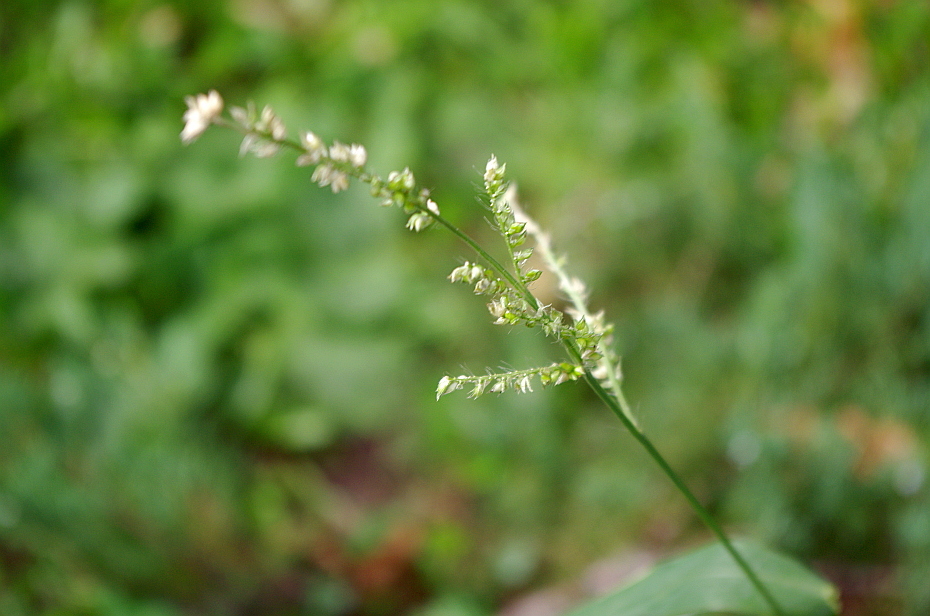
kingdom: Plantae
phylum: Tracheophyta
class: Liliopsida
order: Poales
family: Poaceae
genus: Echinochloa
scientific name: Echinochloa crus-galli
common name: Cockspur
